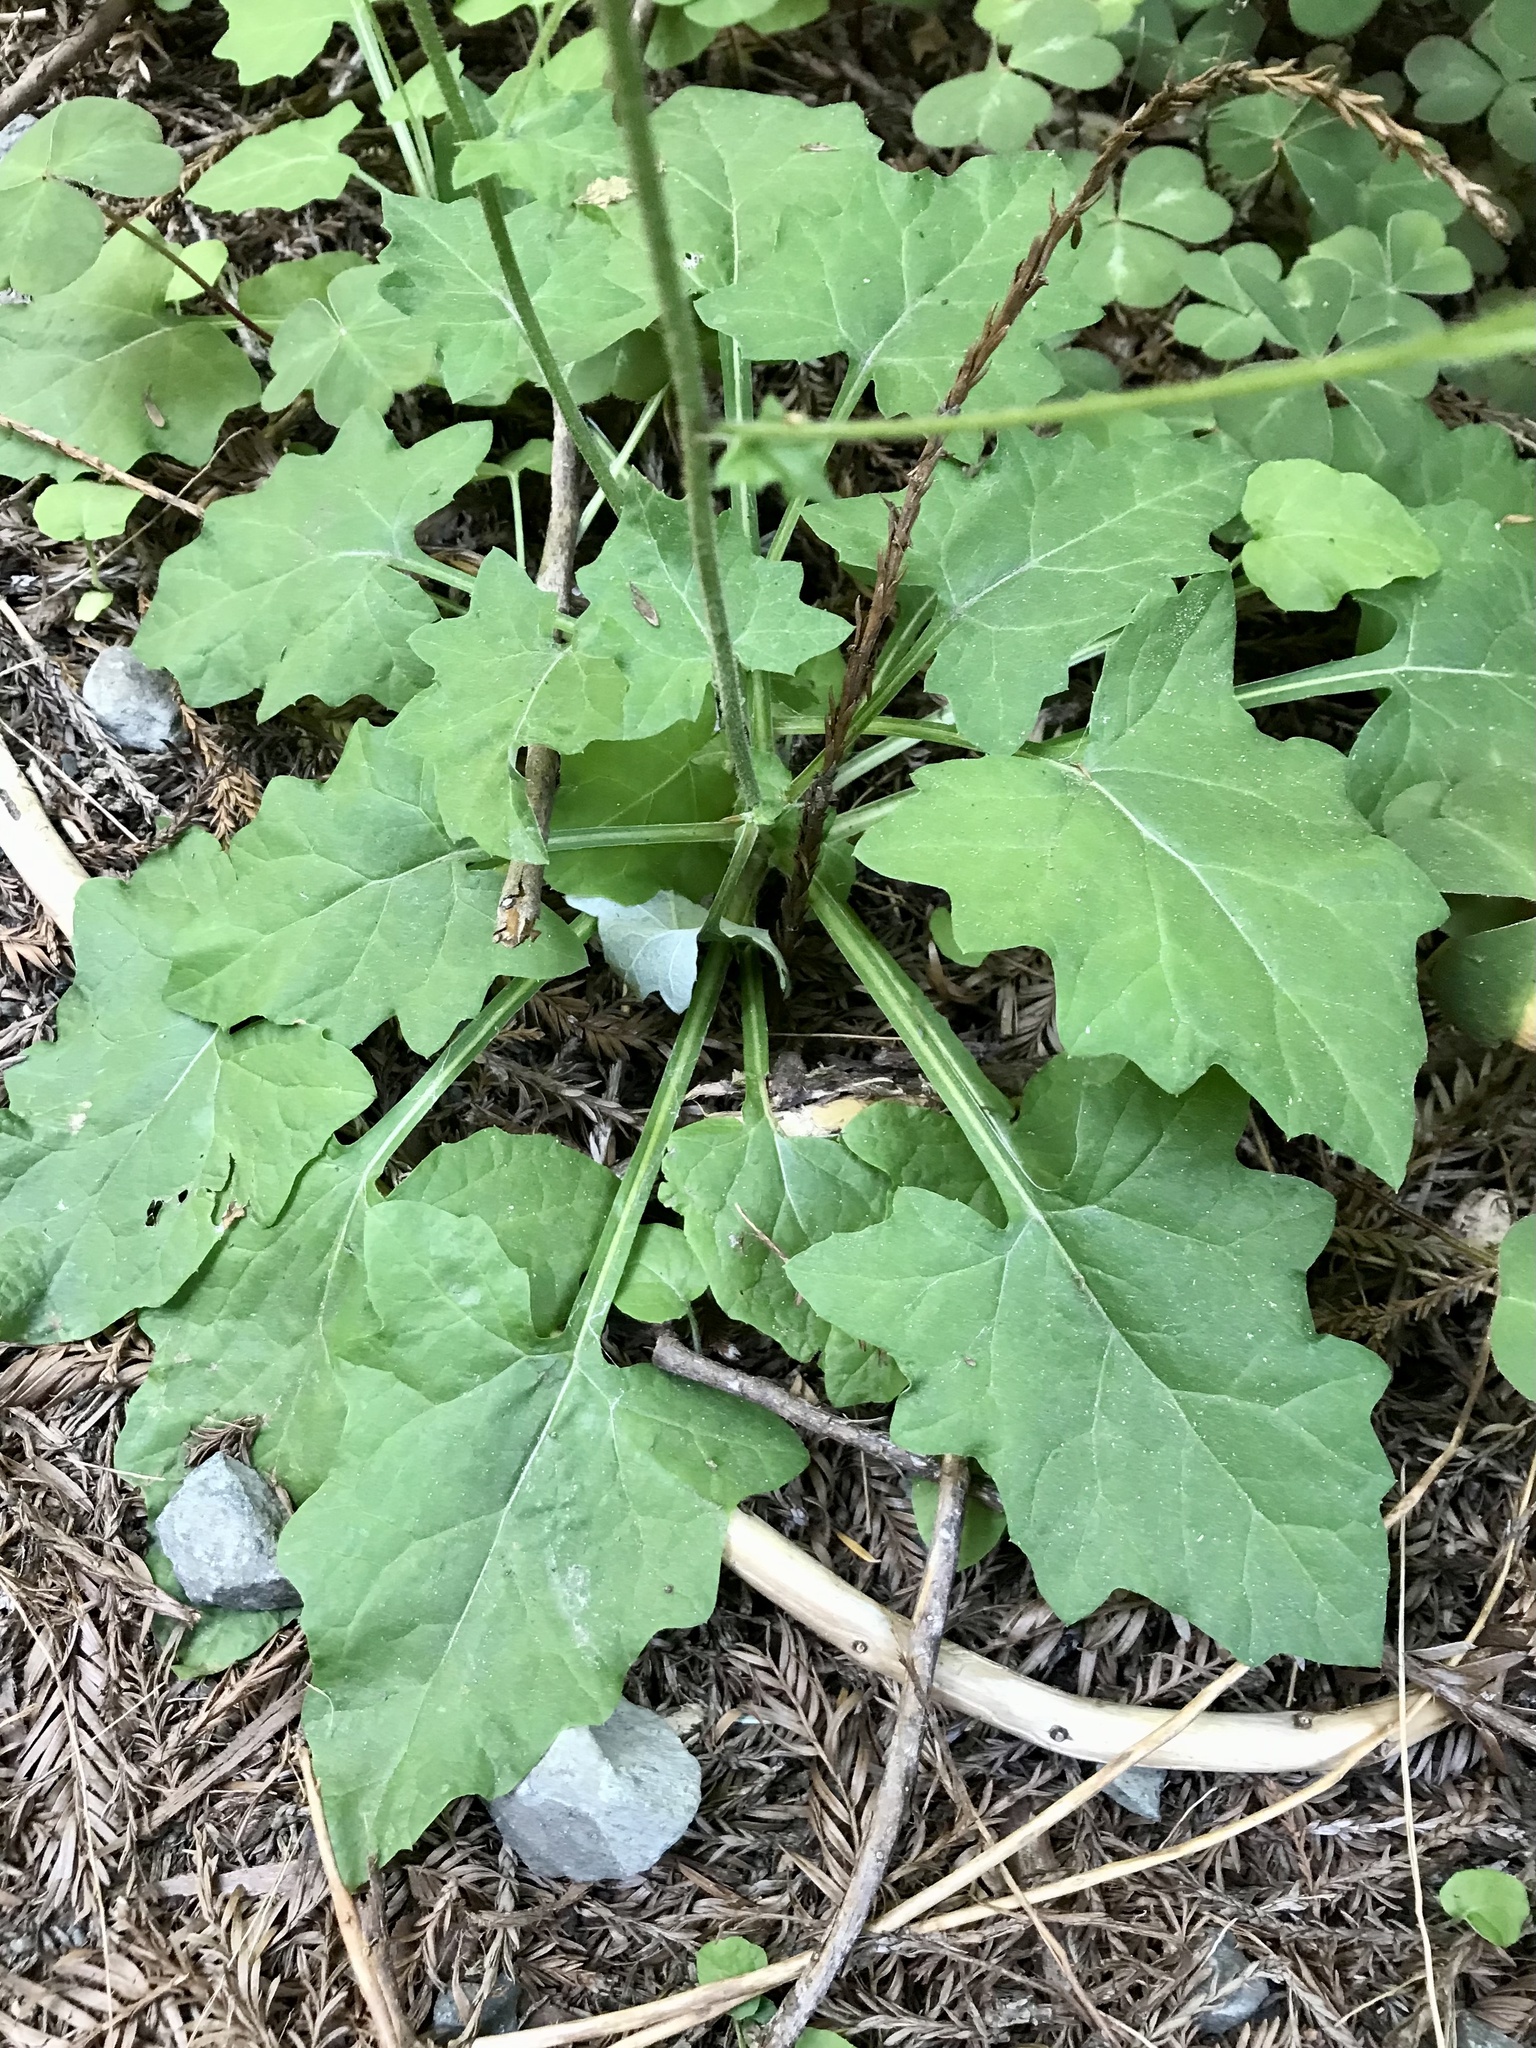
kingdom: Plantae
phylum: Tracheophyta
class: Magnoliopsida
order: Asterales
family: Asteraceae
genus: Adenocaulon
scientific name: Adenocaulon bicolor
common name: Trailplant
